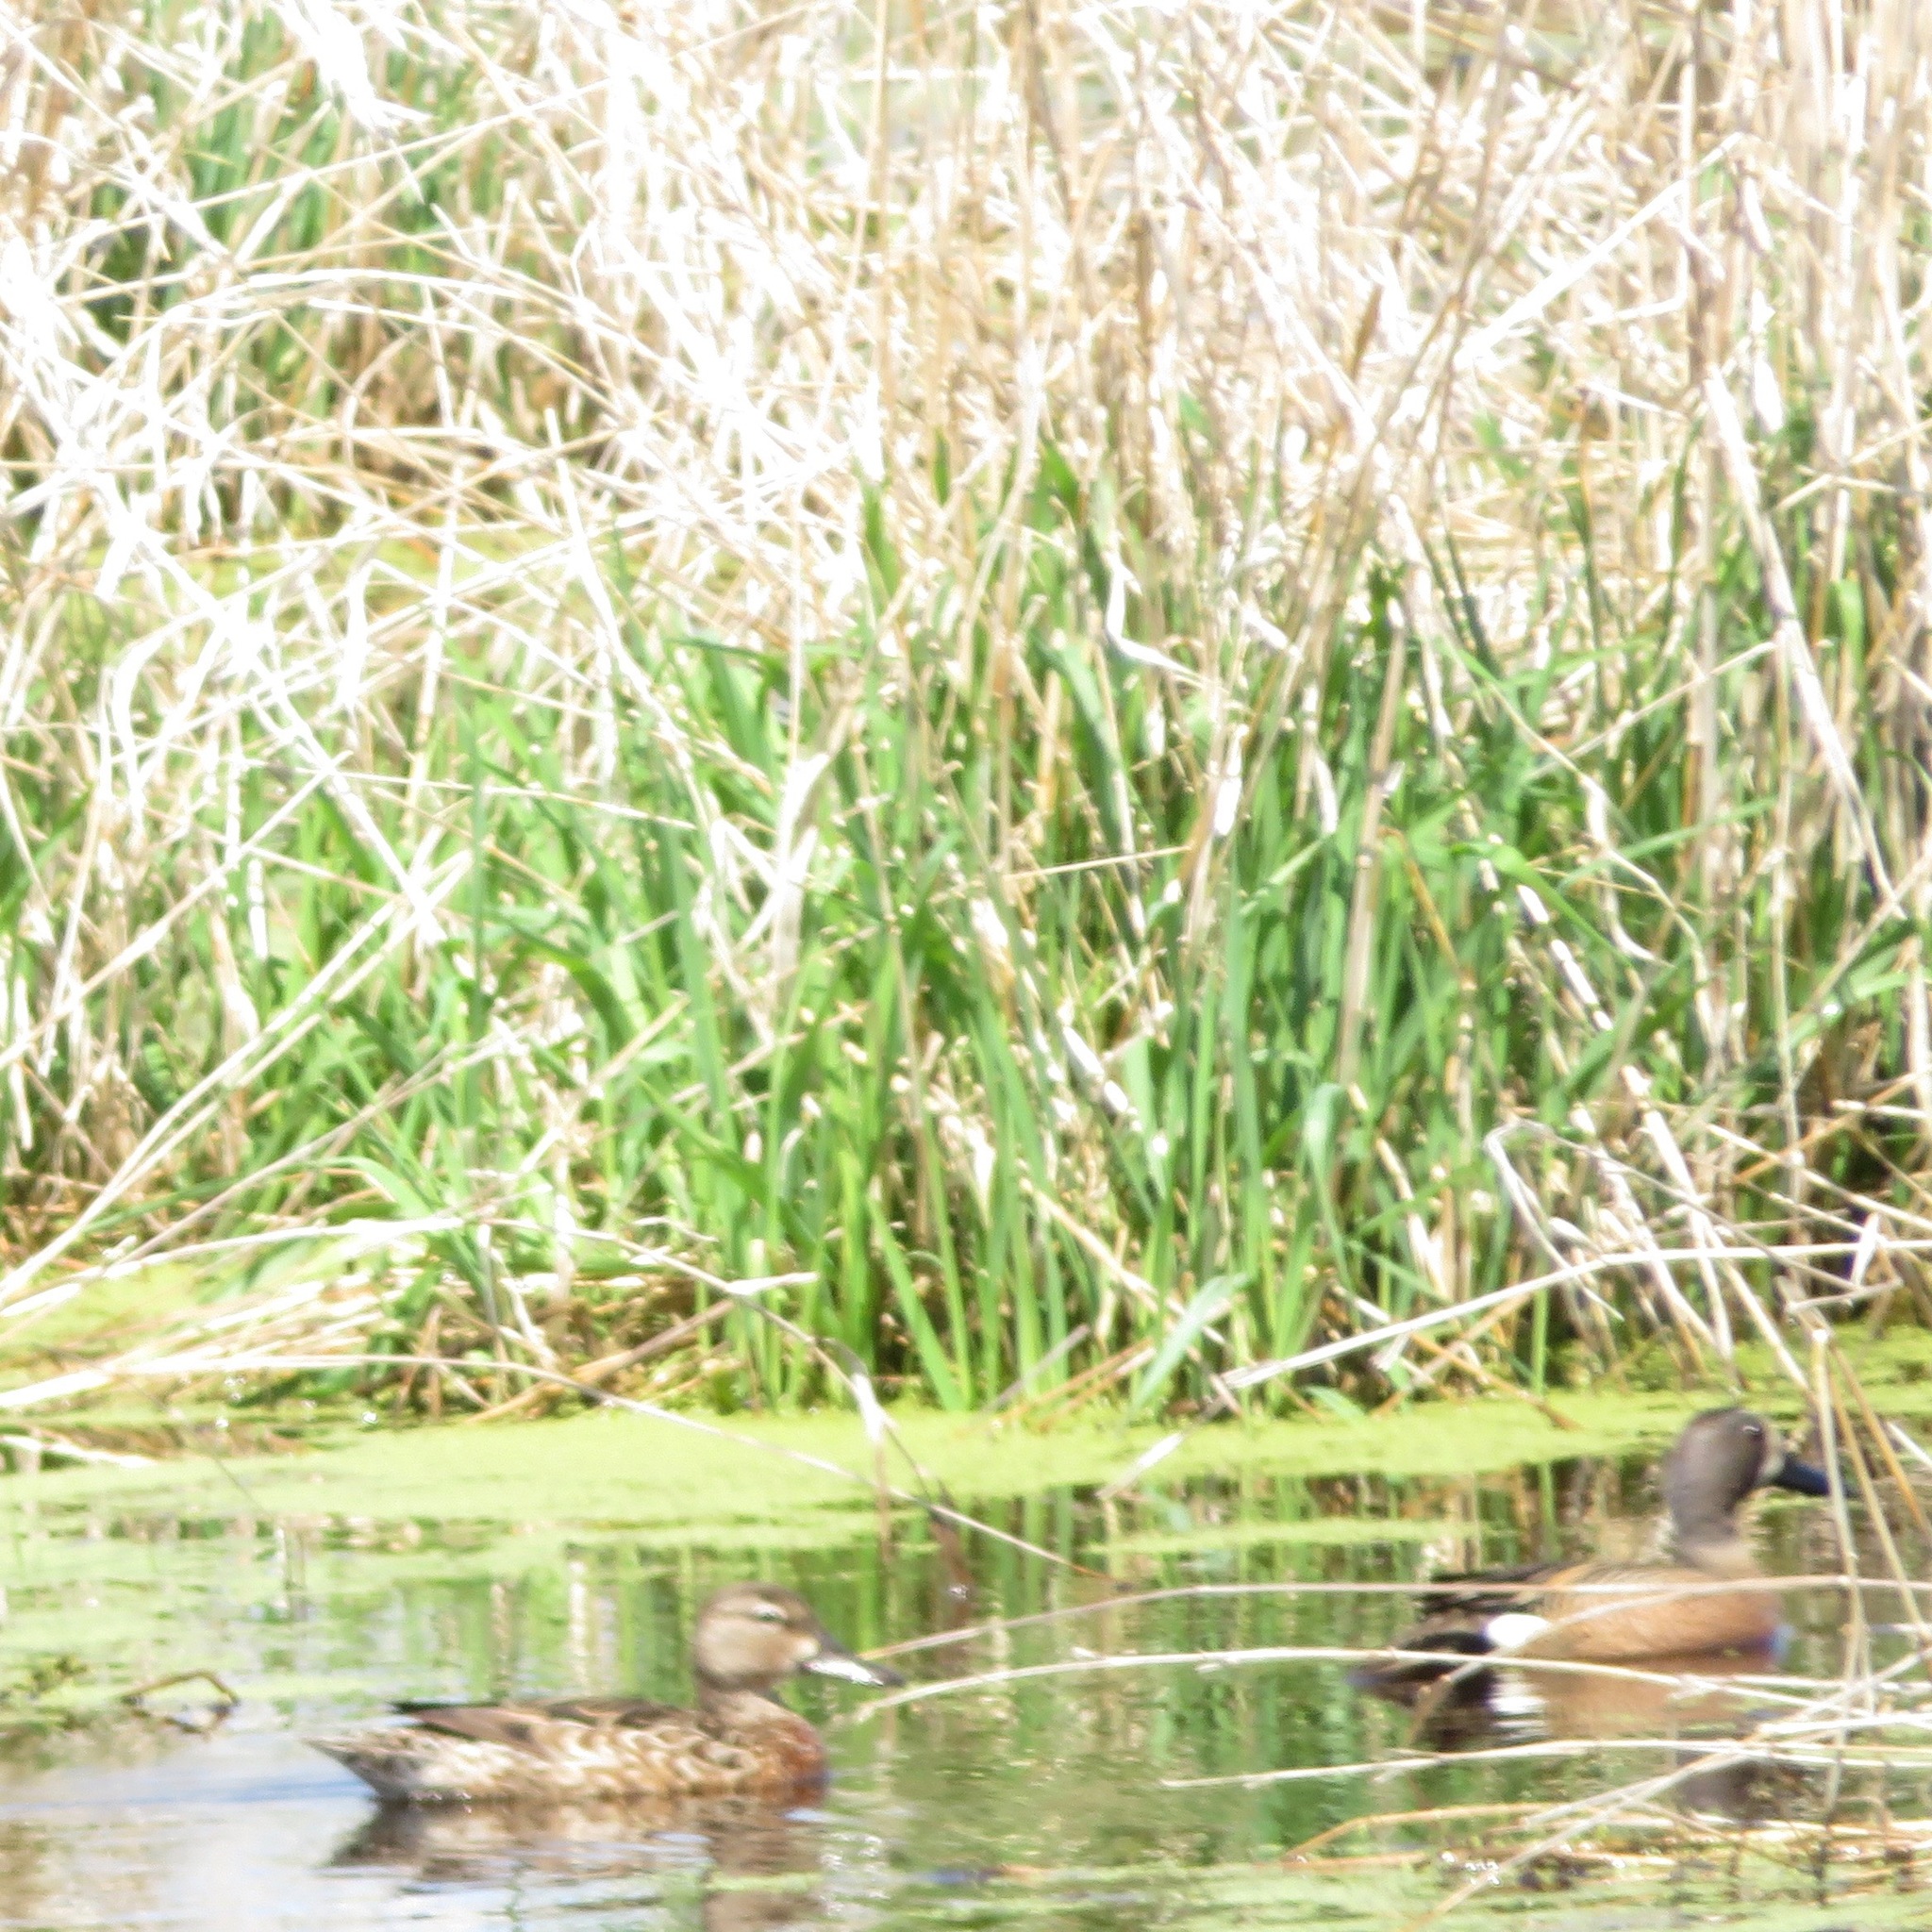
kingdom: Animalia
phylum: Chordata
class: Aves
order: Anseriformes
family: Anatidae
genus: Spatula
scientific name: Spatula discors
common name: Blue-winged teal
